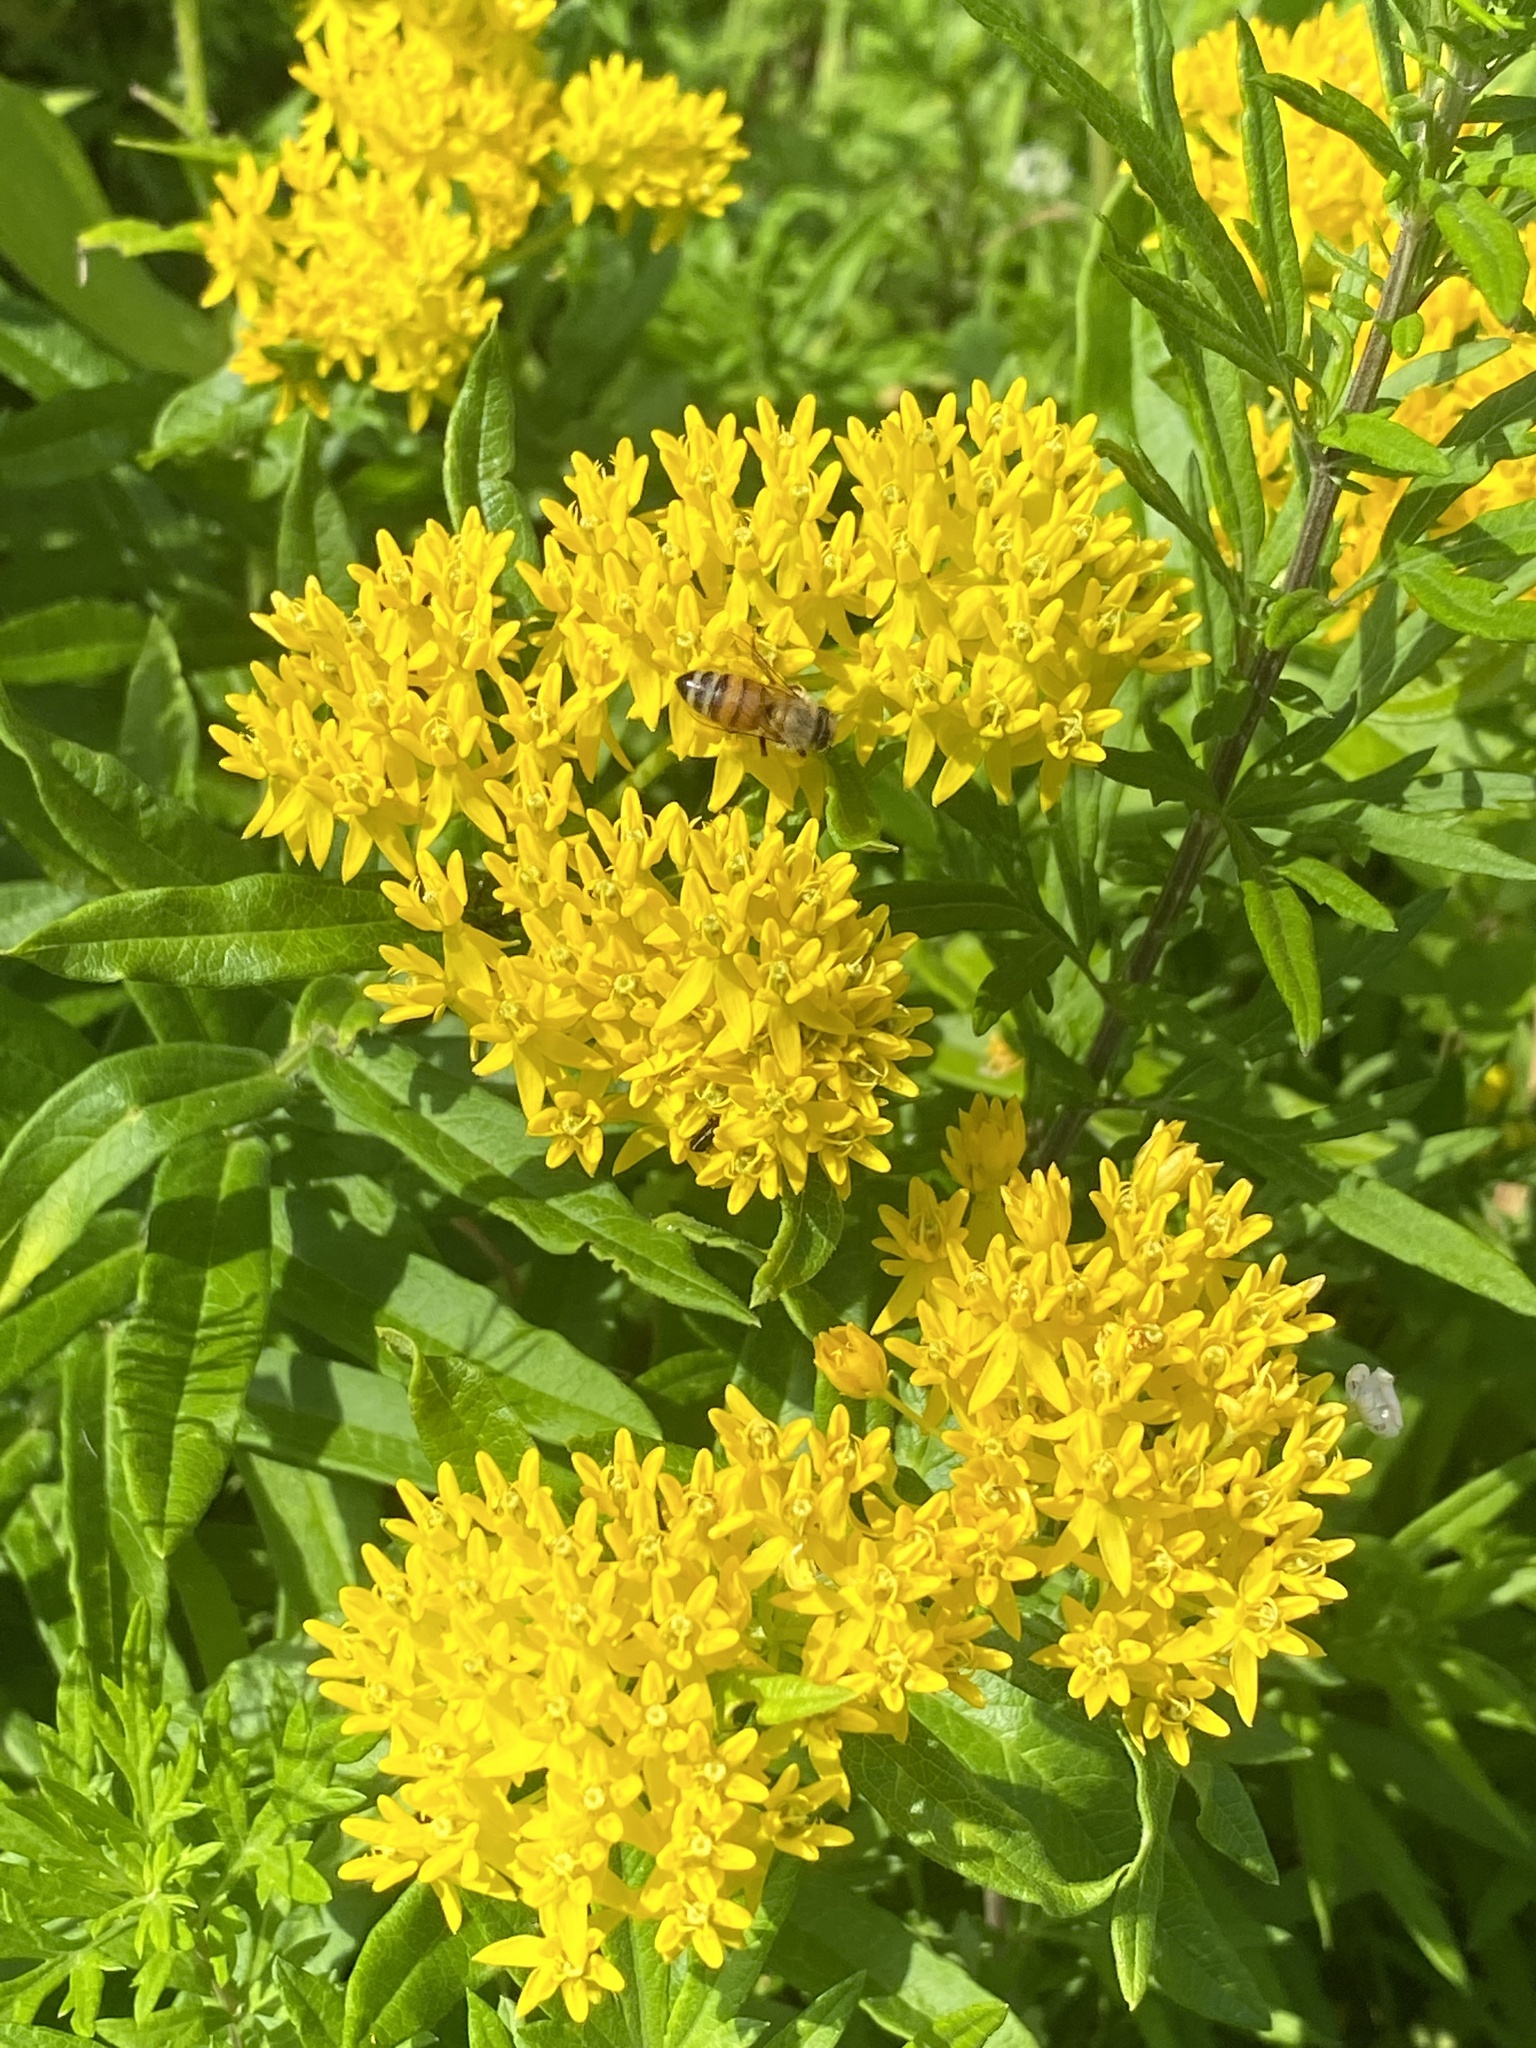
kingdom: Plantae
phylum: Tracheophyta
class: Magnoliopsida
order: Gentianales
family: Apocynaceae
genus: Asclepias
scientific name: Asclepias tuberosa
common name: Butterfly milkweed
